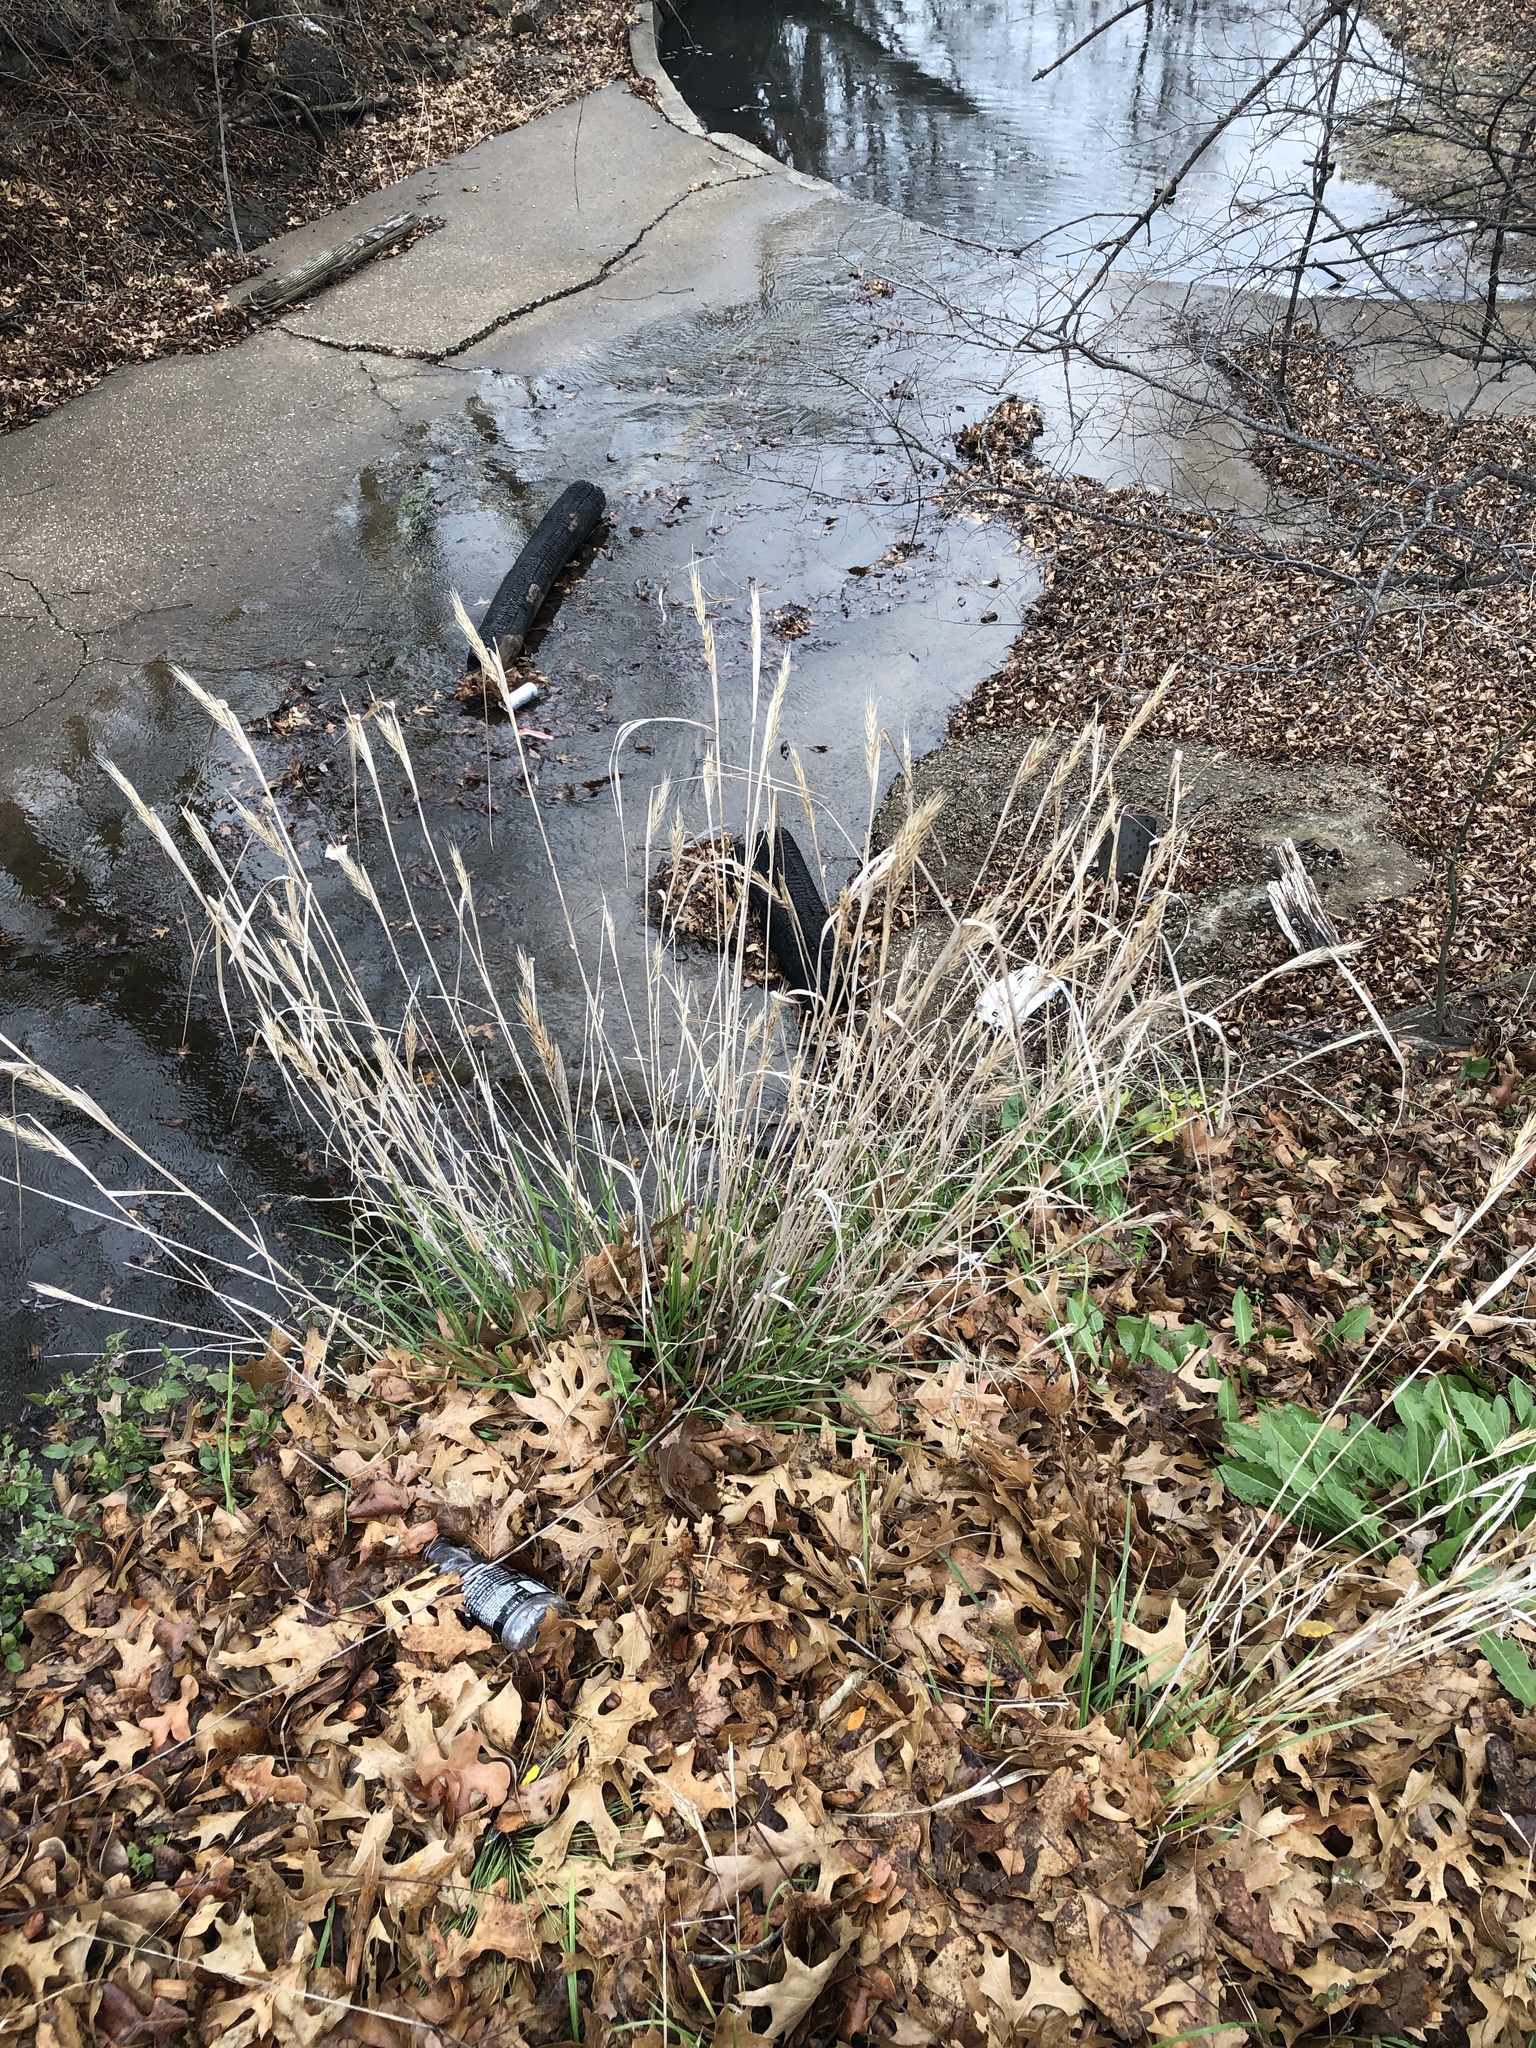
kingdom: Plantae
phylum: Tracheophyta
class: Liliopsida
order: Poales
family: Poaceae
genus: Elymus
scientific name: Elymus virginicus
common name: Common eastern wildrye
